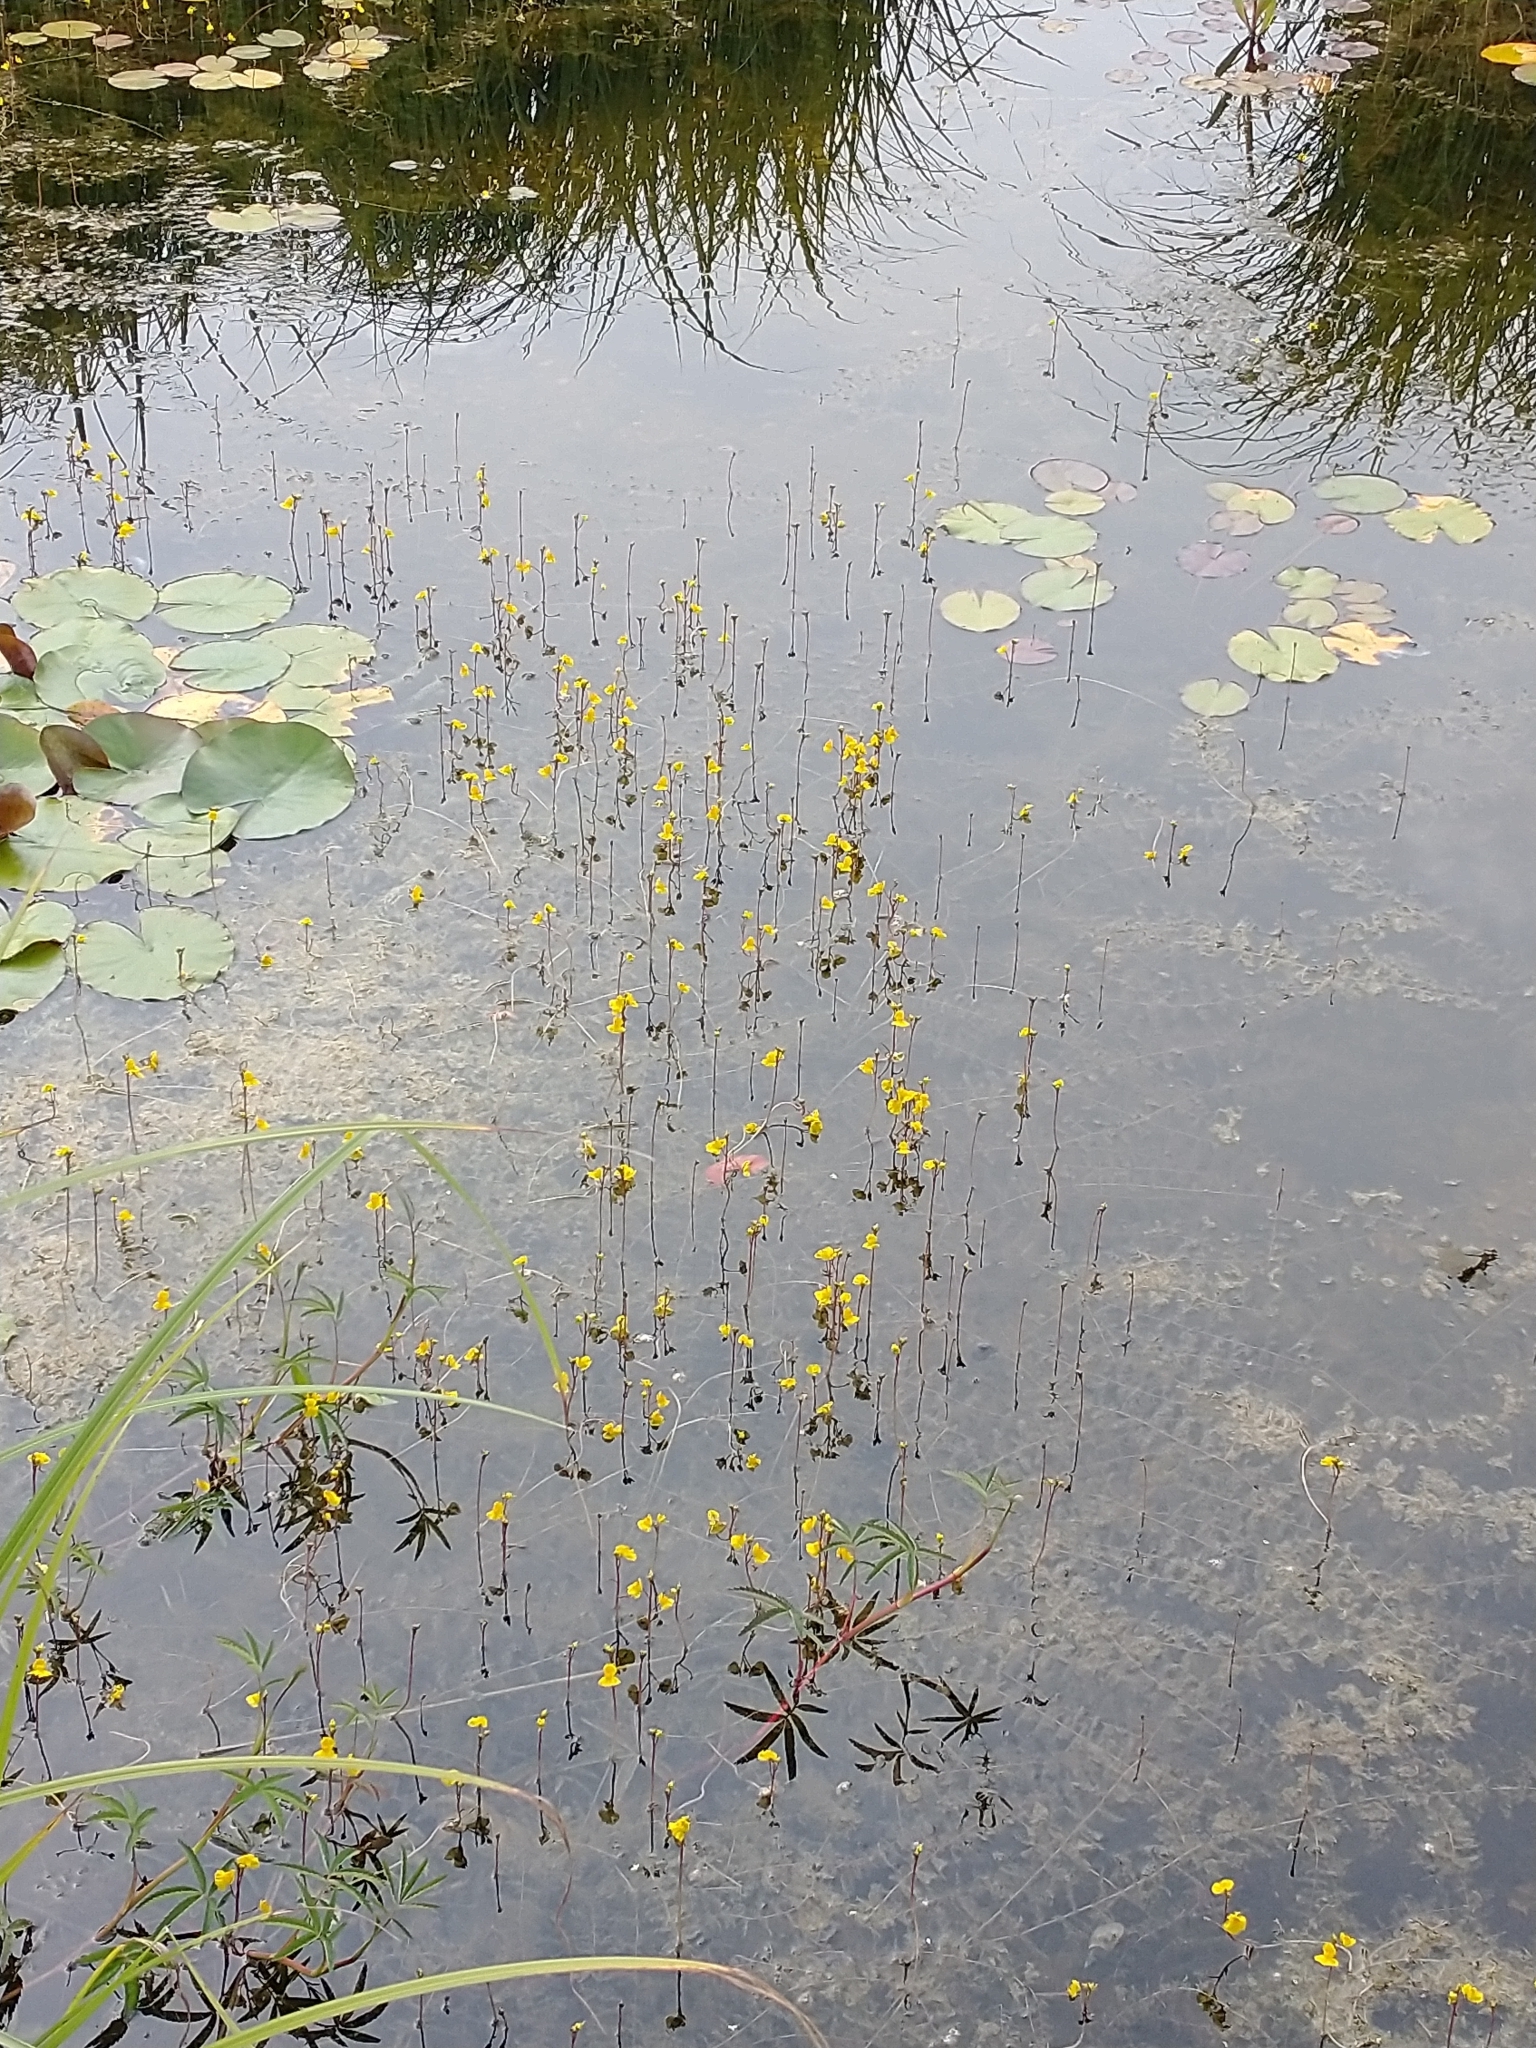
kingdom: Plantae
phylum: Tracheophyta
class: Magnoliopsida
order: Lamiales
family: Lentibulariaceae
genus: Utricularia
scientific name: Utricularia vulgaris
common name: Greater bladderwort
